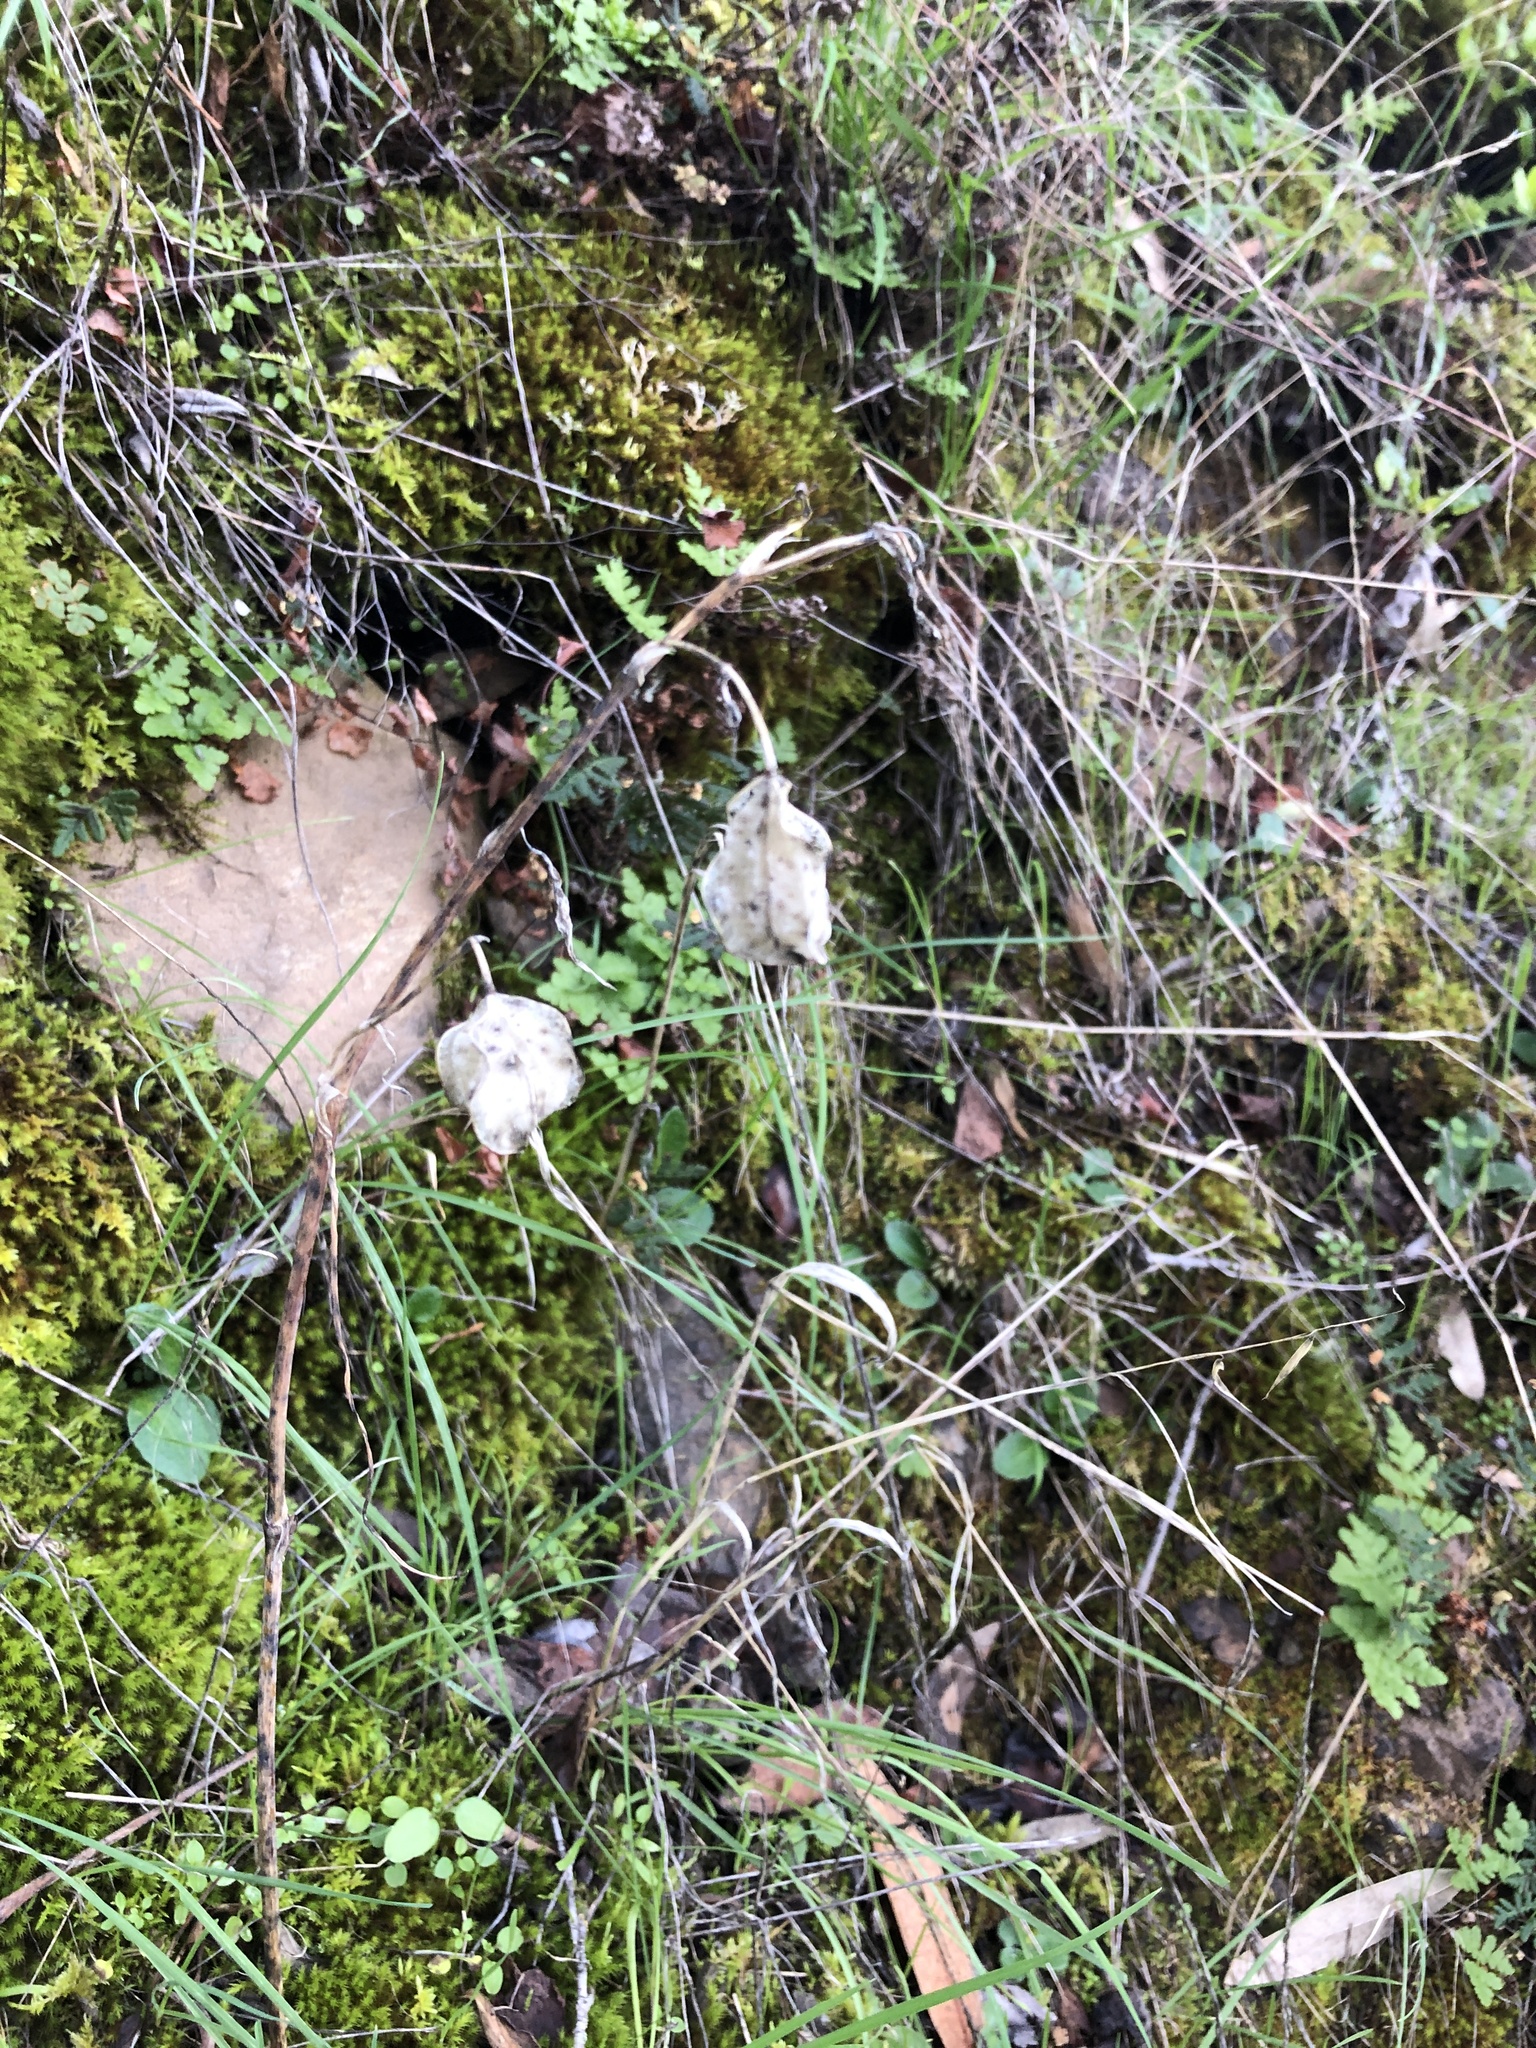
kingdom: Plantae
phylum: Tracheophyta
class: Liliopsida
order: Liliales
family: Liliaceae
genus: Calochortus
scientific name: Calochortus albus
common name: Fairy-lantern
